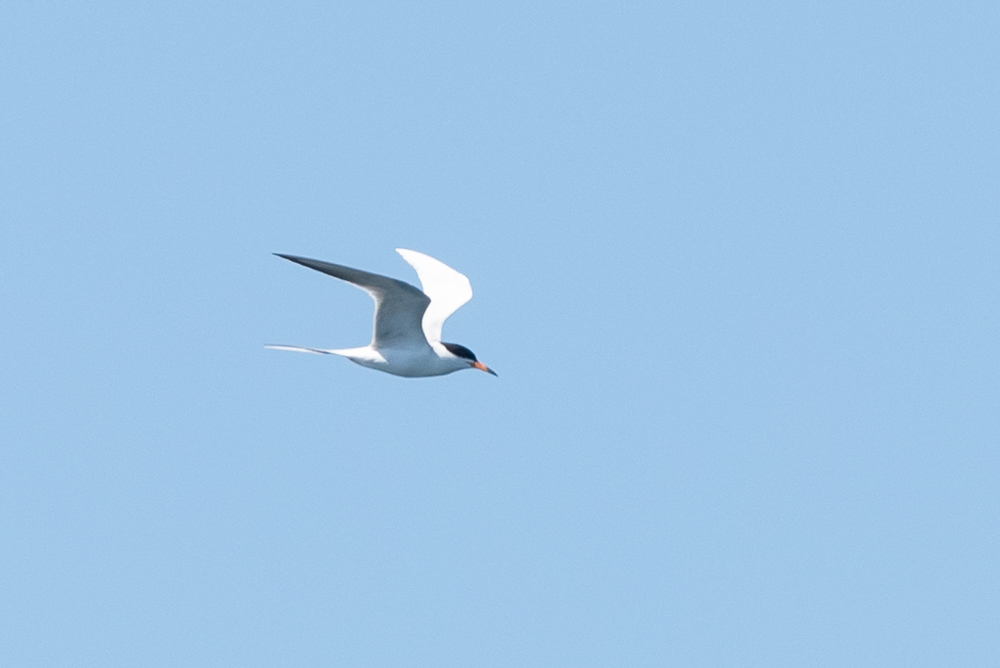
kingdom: Animalia
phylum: Chordata
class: Aves
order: Charadriiformes
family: Laridae
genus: Sterna
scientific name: Sterna forsteri
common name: Forster's tern
